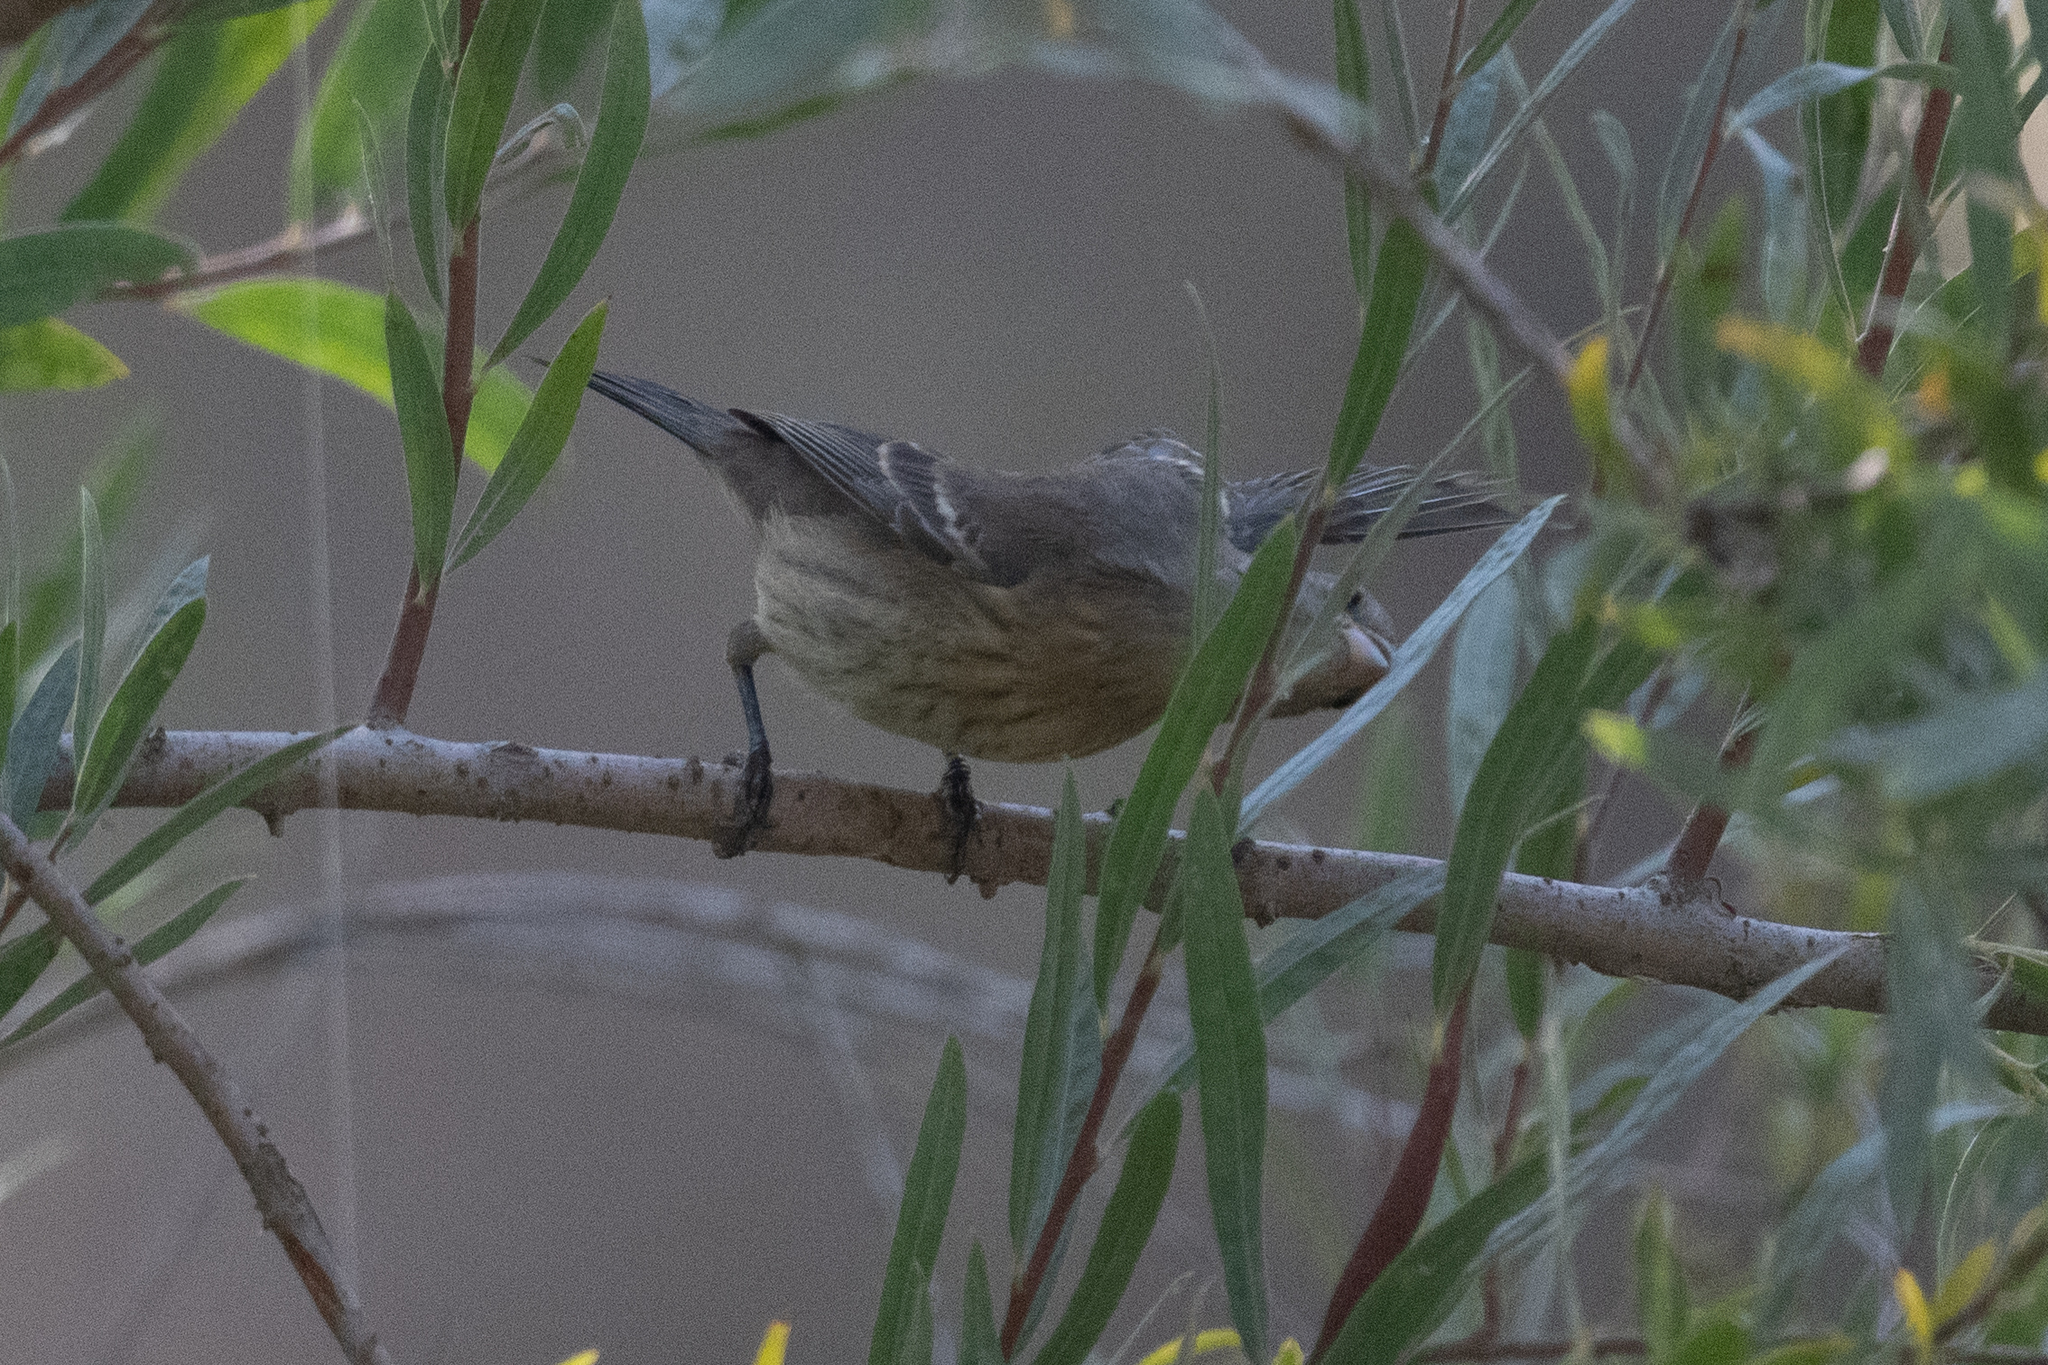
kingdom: Animalia
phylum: Chordata
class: Aves
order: Passeriformes
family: Cardinalidae
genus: Passerina
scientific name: Passerina amoena
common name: Lazuli bunting
